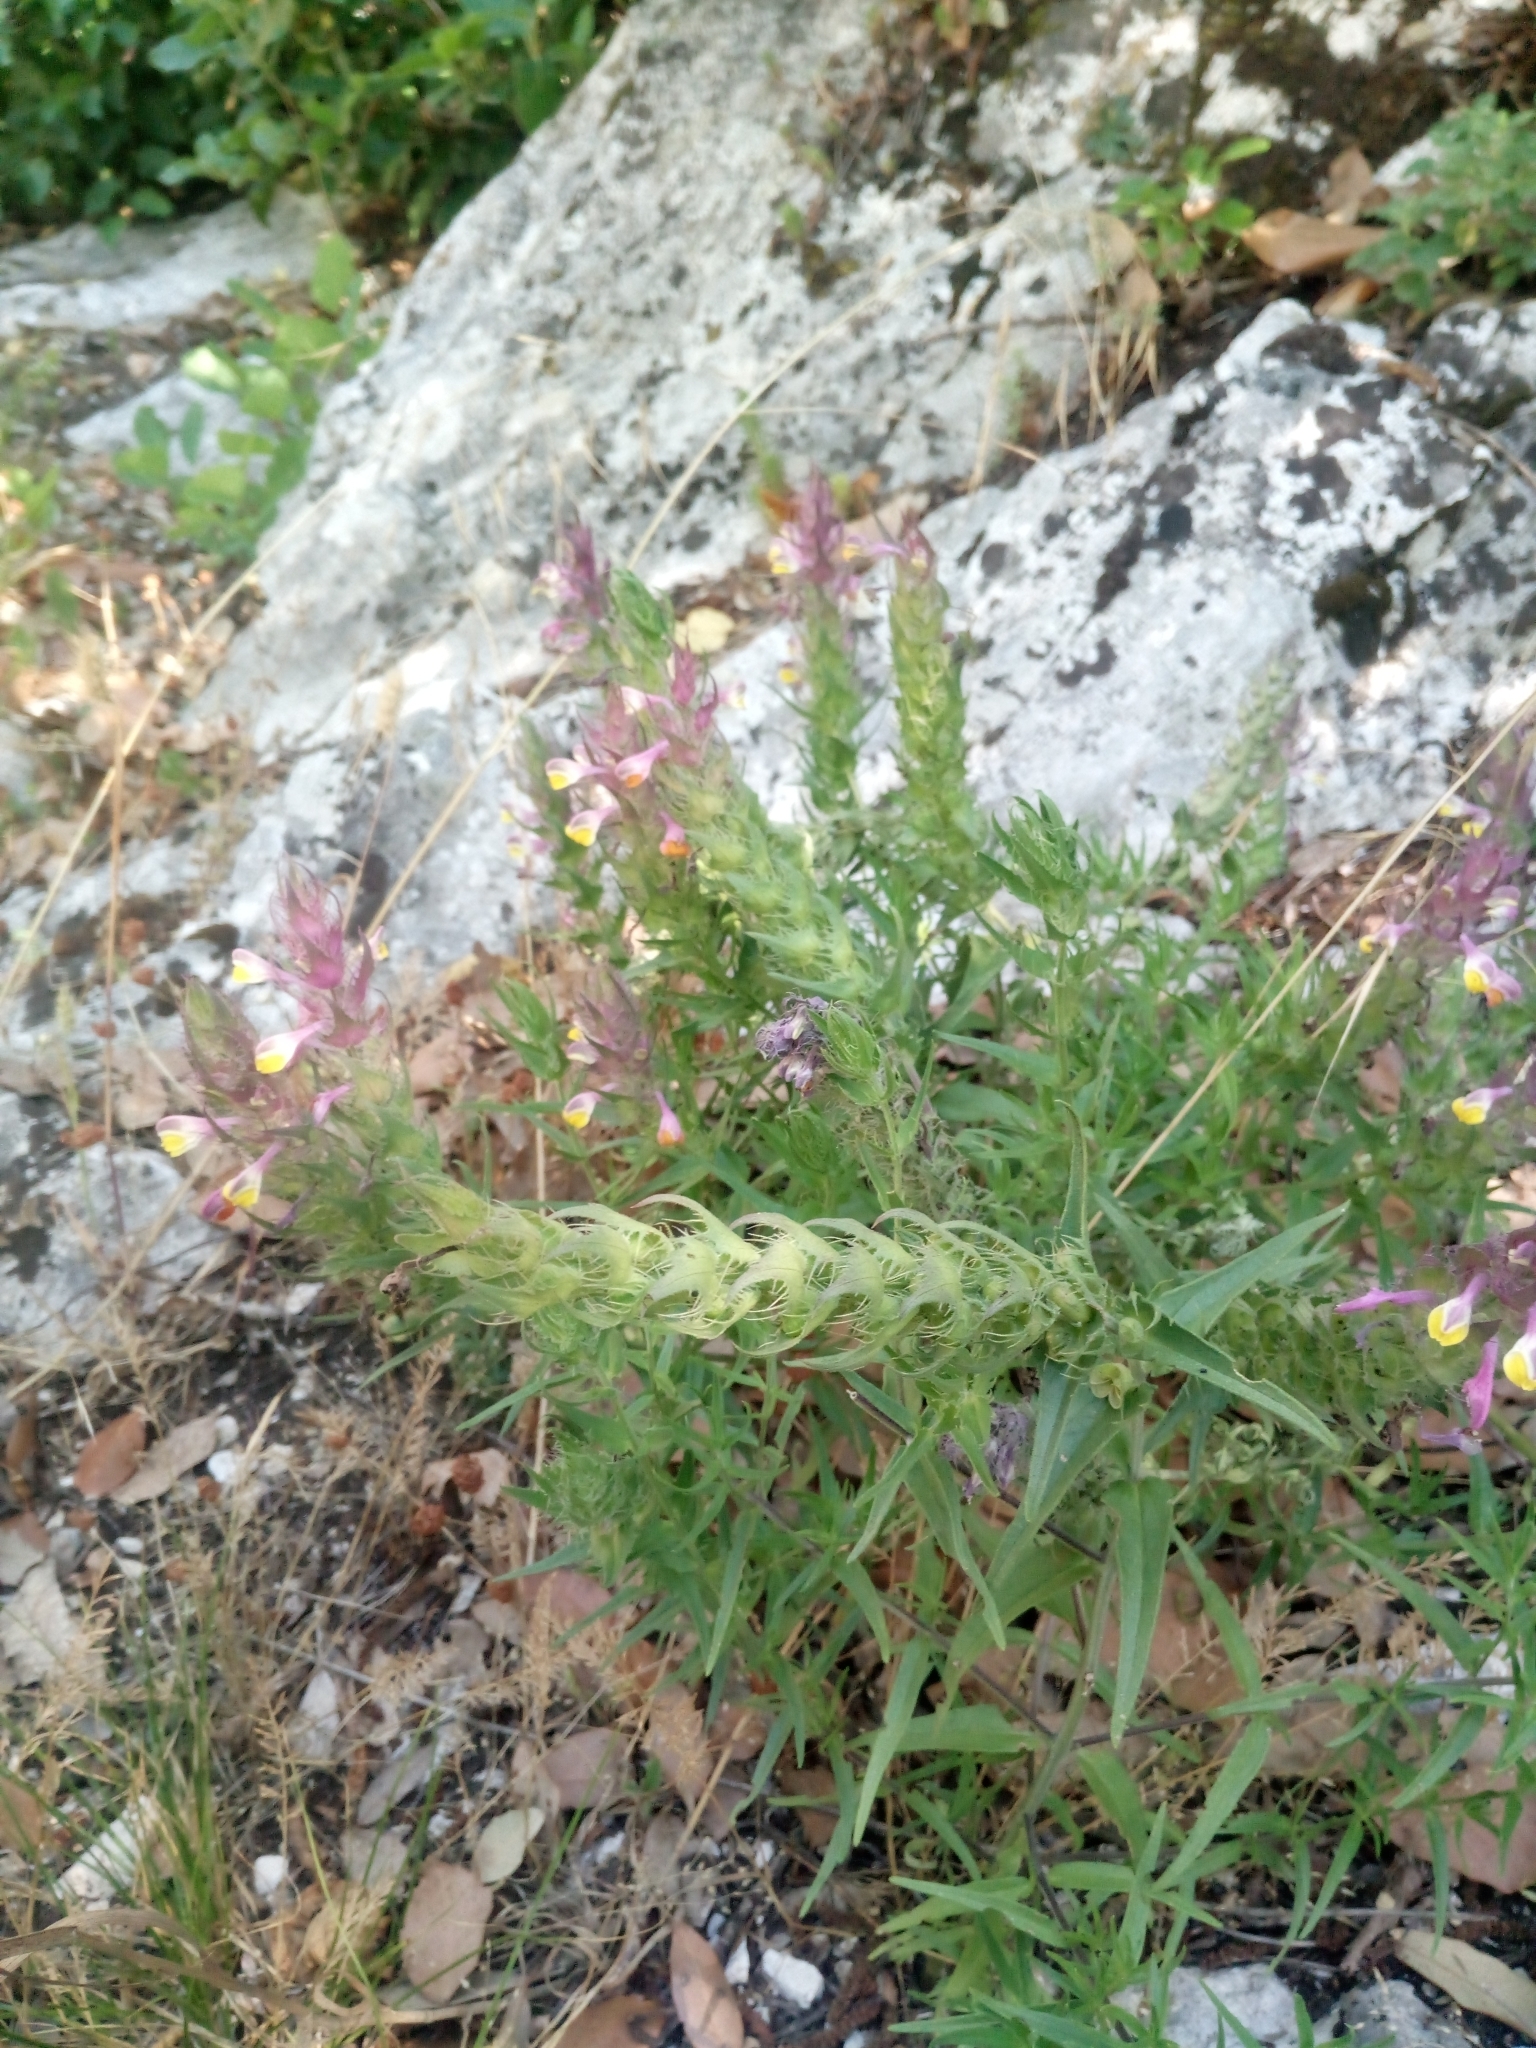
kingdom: Plantae
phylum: Tracheophyta
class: Magnoliopsida
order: Lamiales
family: Orobanchaceae
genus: Melampyrum
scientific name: Melampyrum arvense
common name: Field cow-wheat
